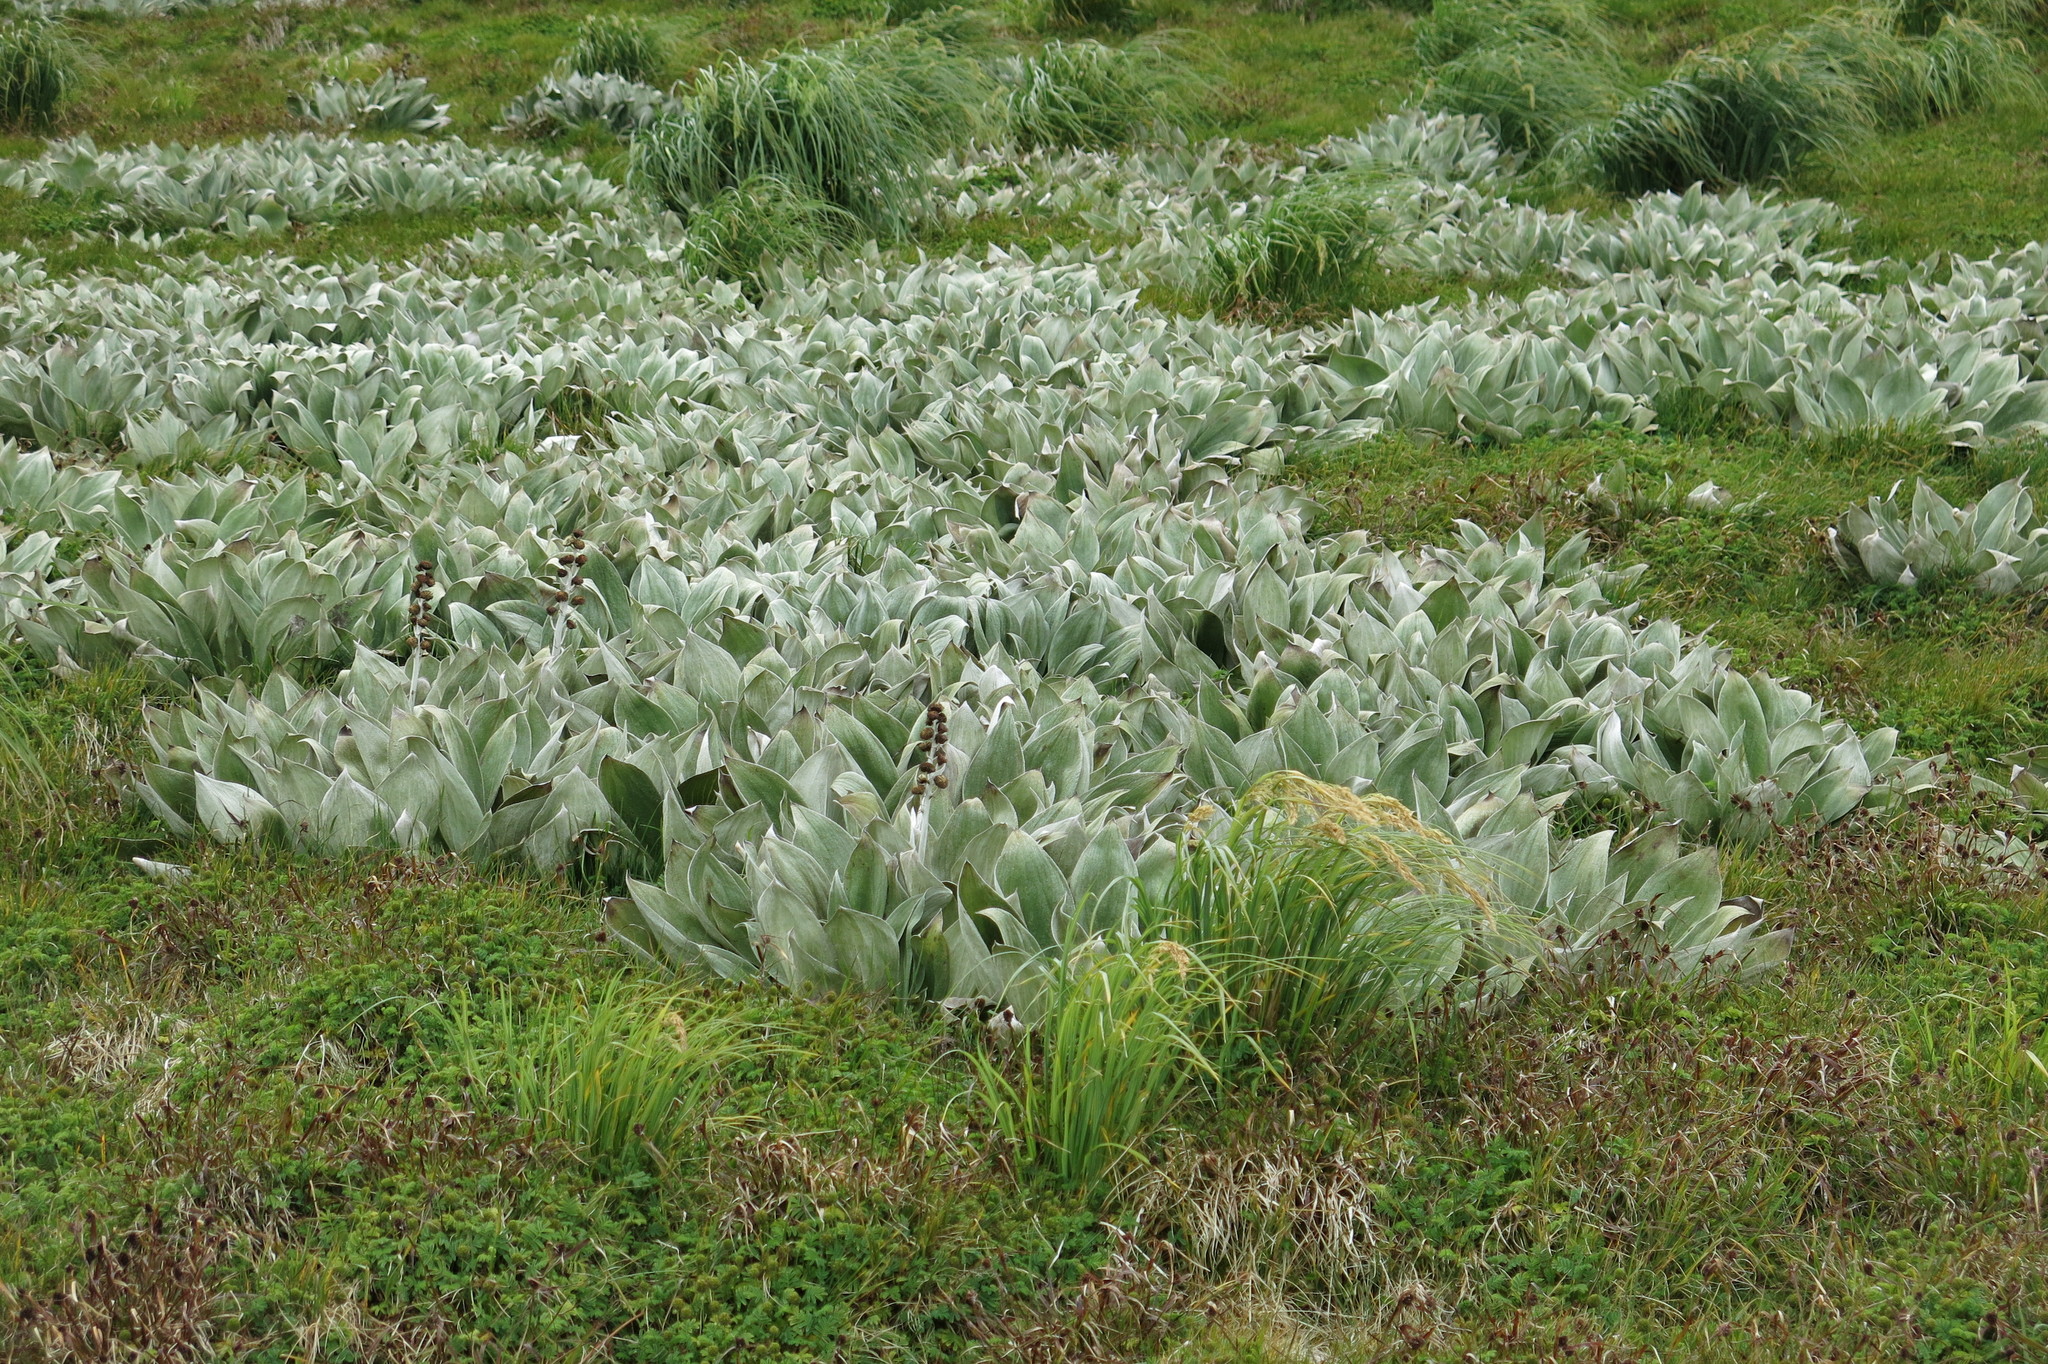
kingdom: Plantae
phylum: Tracheophyta
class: Magnoliopsida
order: Asterales
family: Asteraceae
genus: Pleurophyllum
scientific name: Pleurophyllum hookeri
